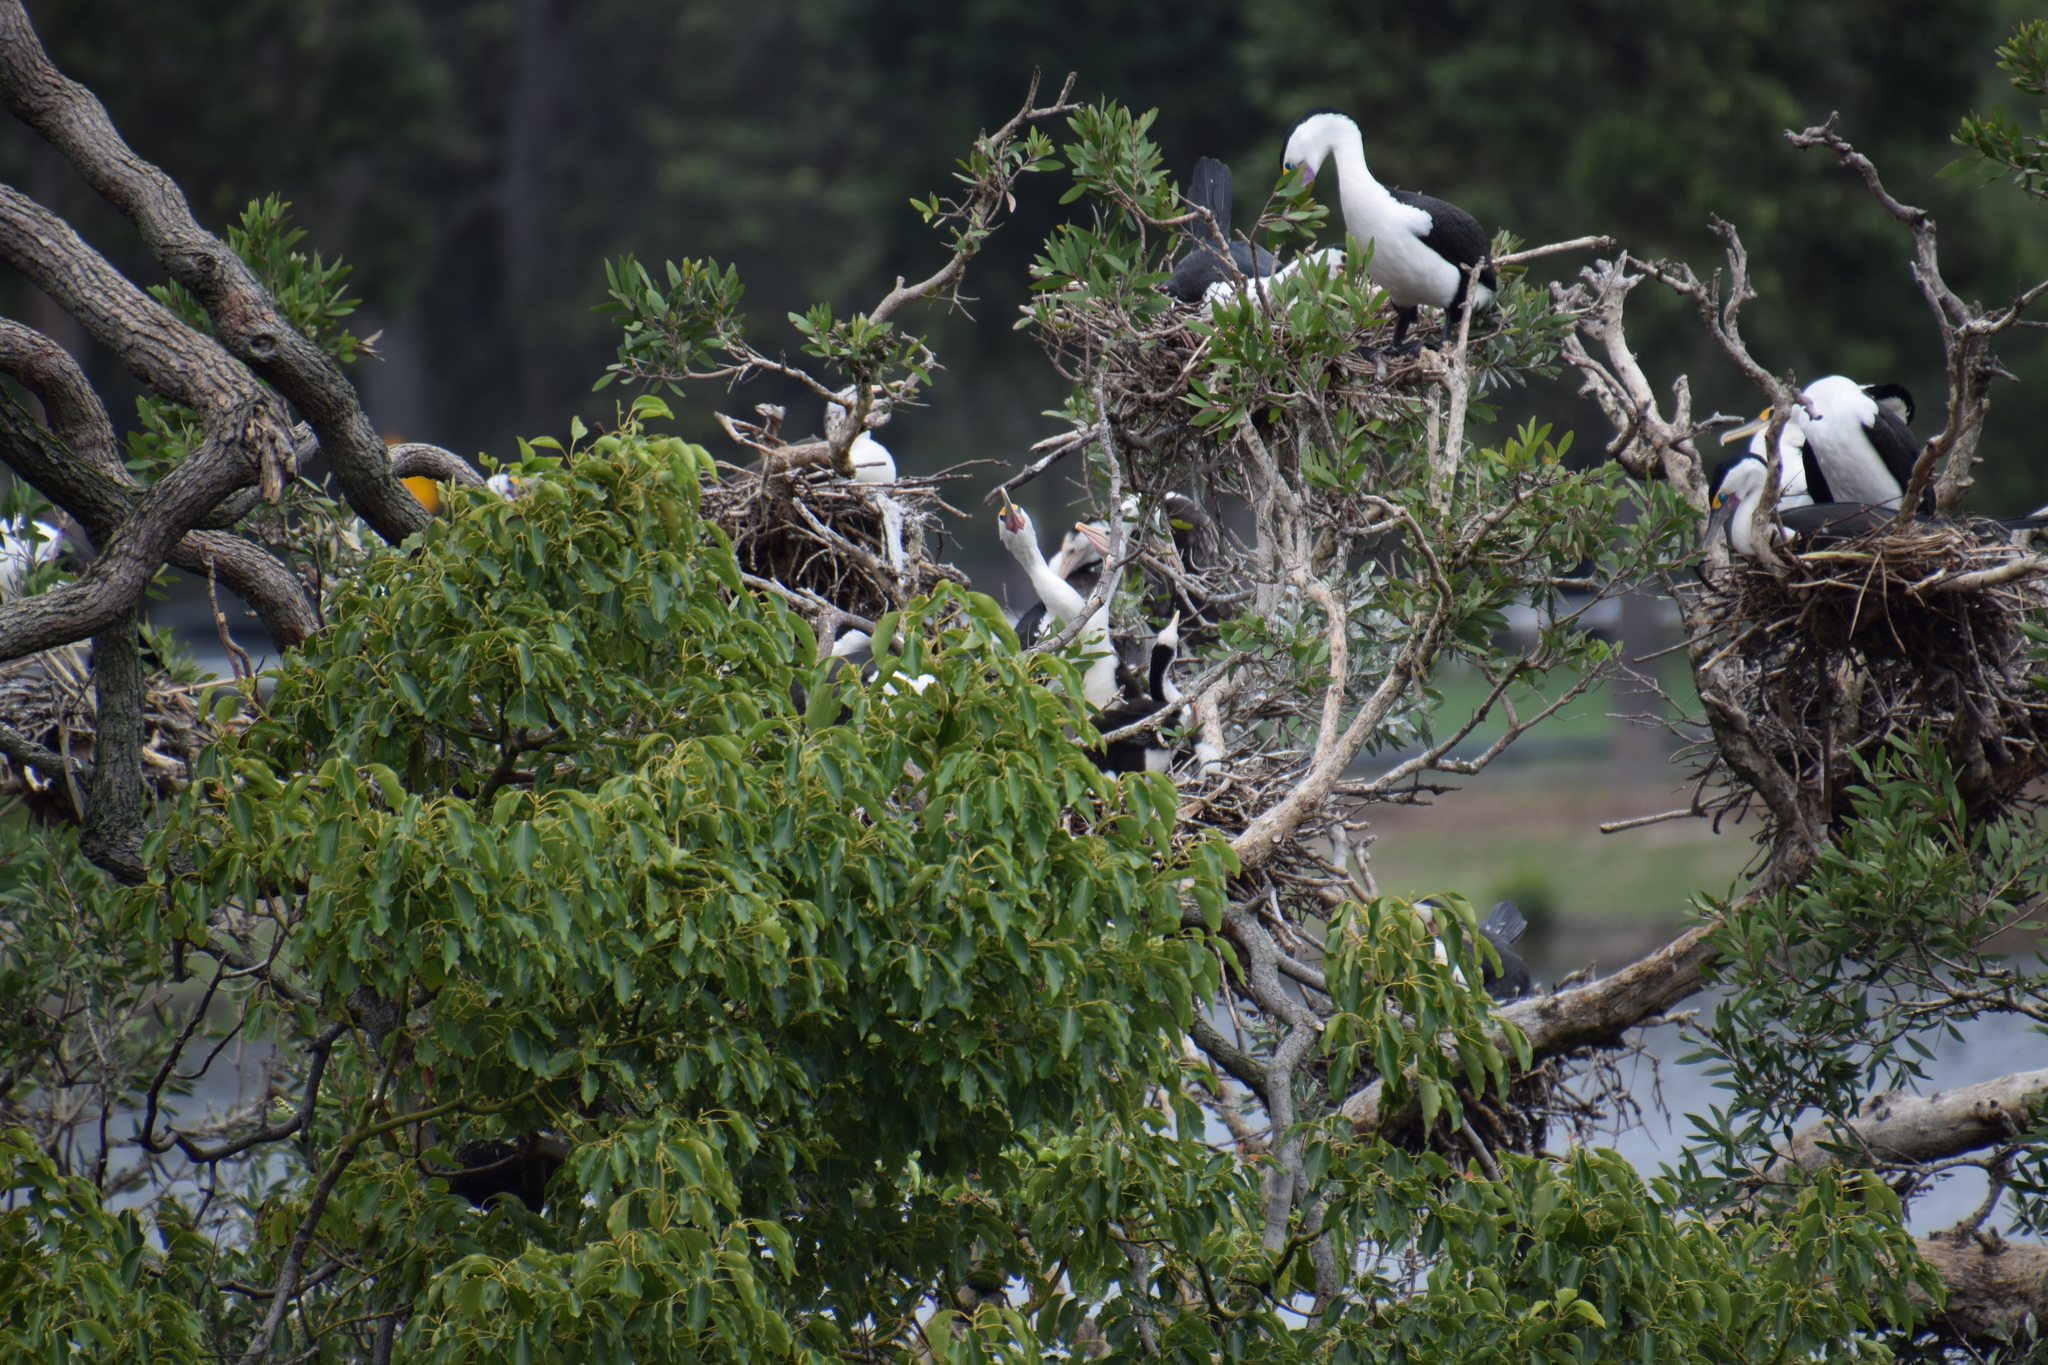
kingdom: Animalia
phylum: Chordata
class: Aves
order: Suliformes
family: Phalacrocoracidae
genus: Phalacrocorax
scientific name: Phalacrocorax varius
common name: Pied cormorant
